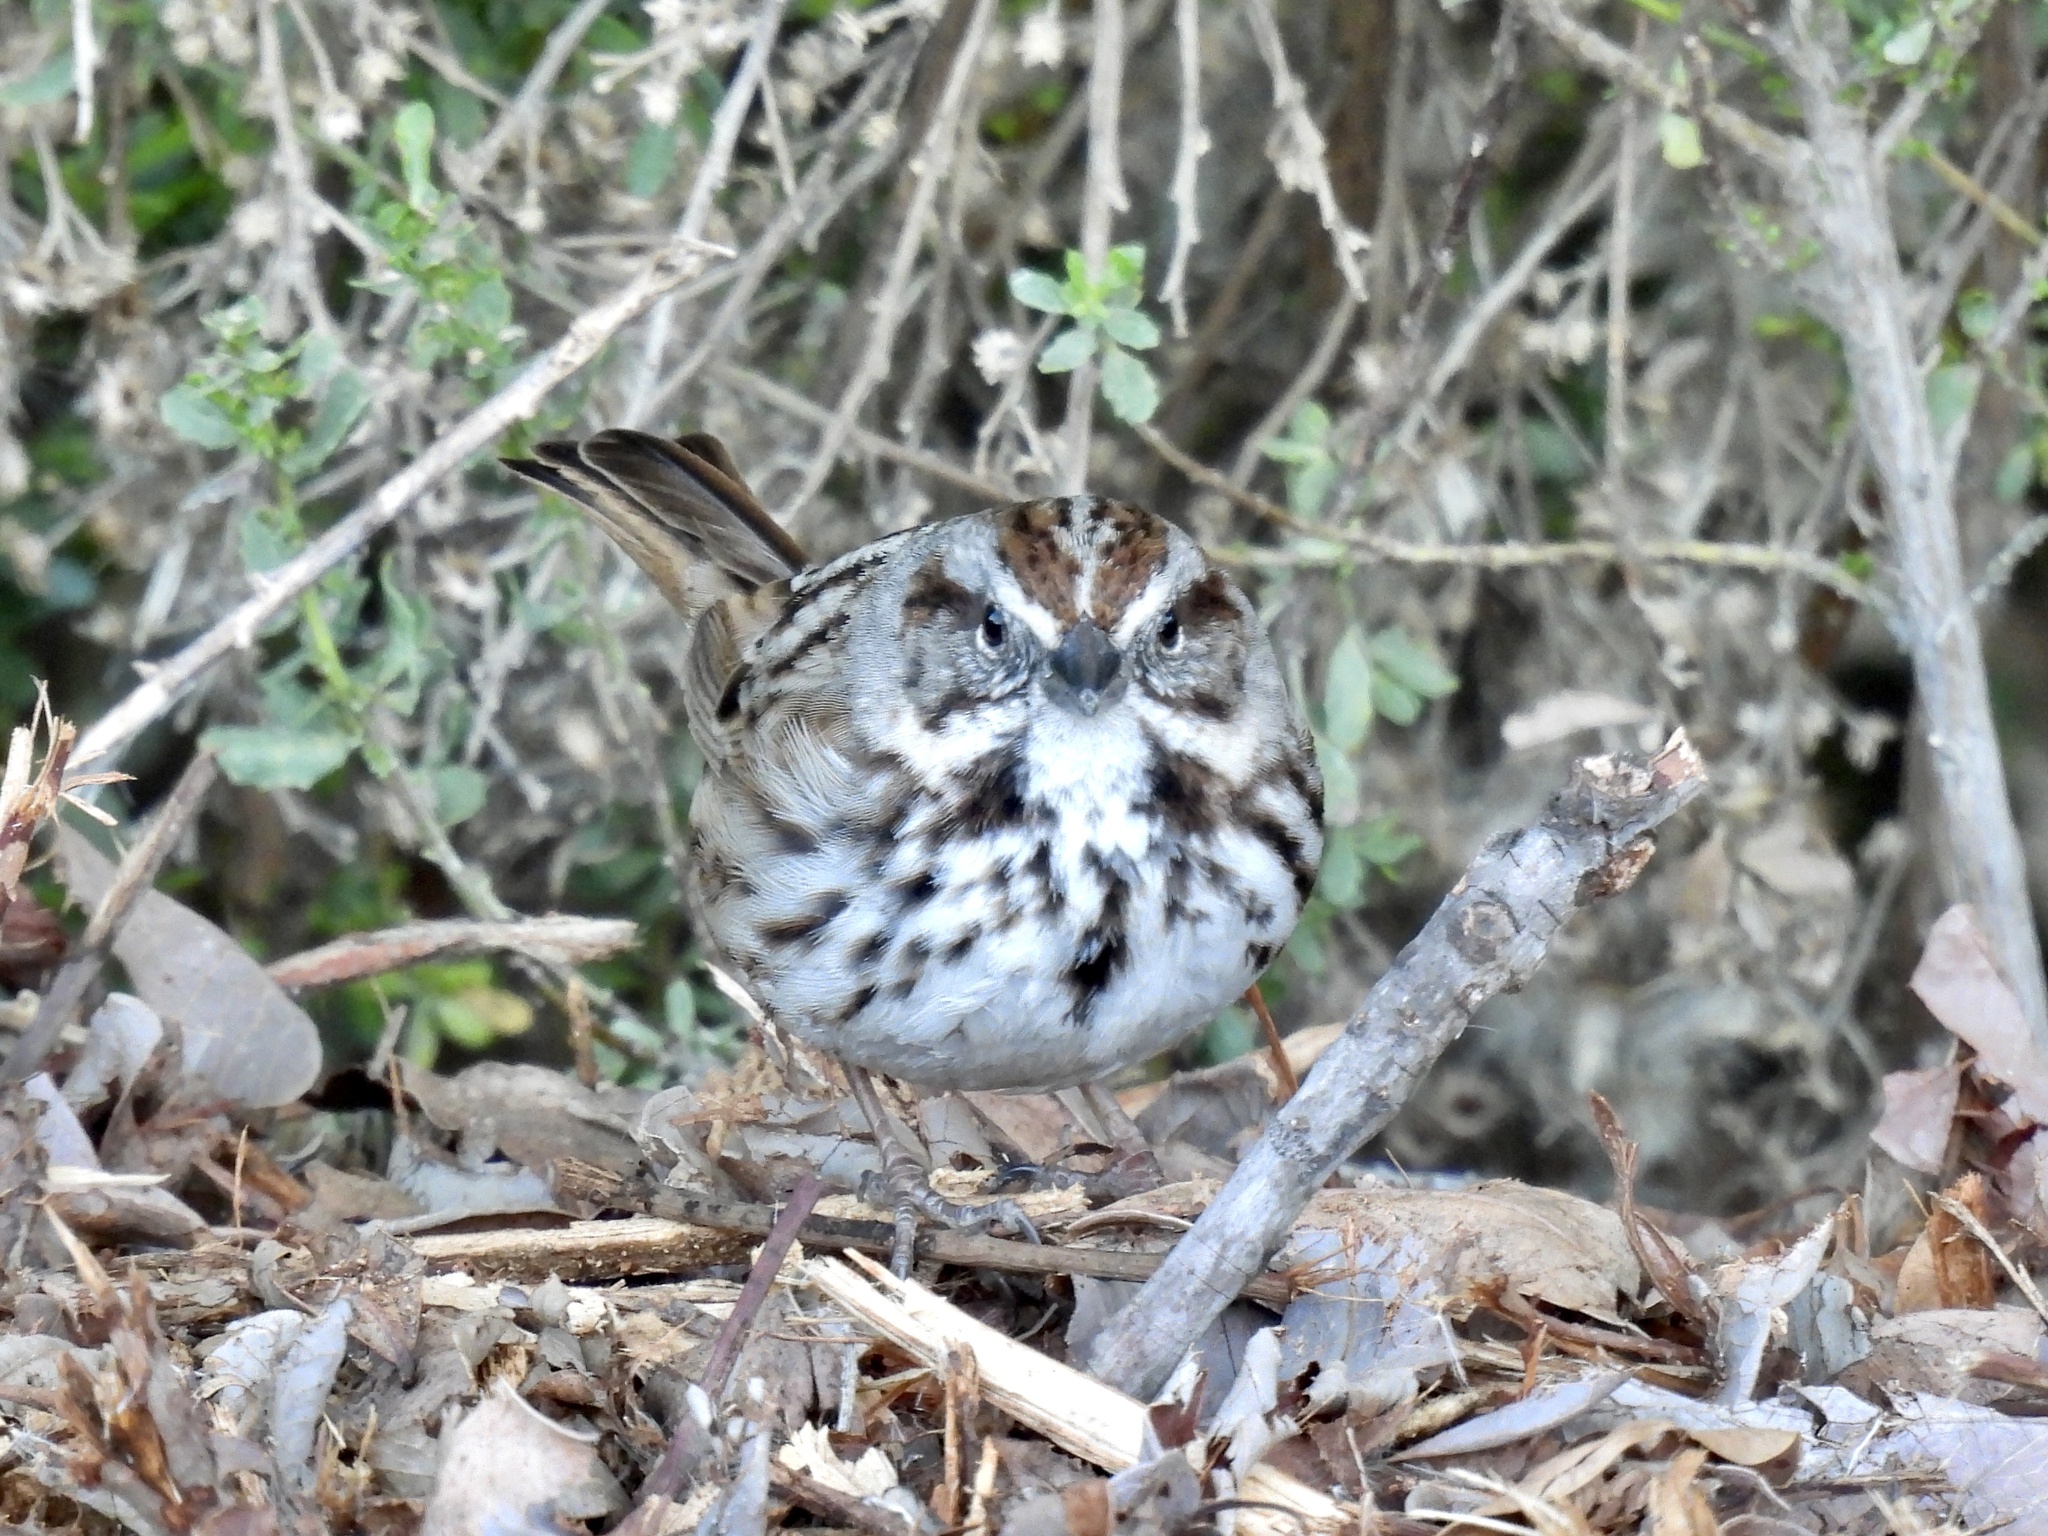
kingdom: Animalia
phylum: Chordata
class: Aves
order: Passeriformes
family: Passerellidae
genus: Melospiza
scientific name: Melospiza melodia
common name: Song sparrow
